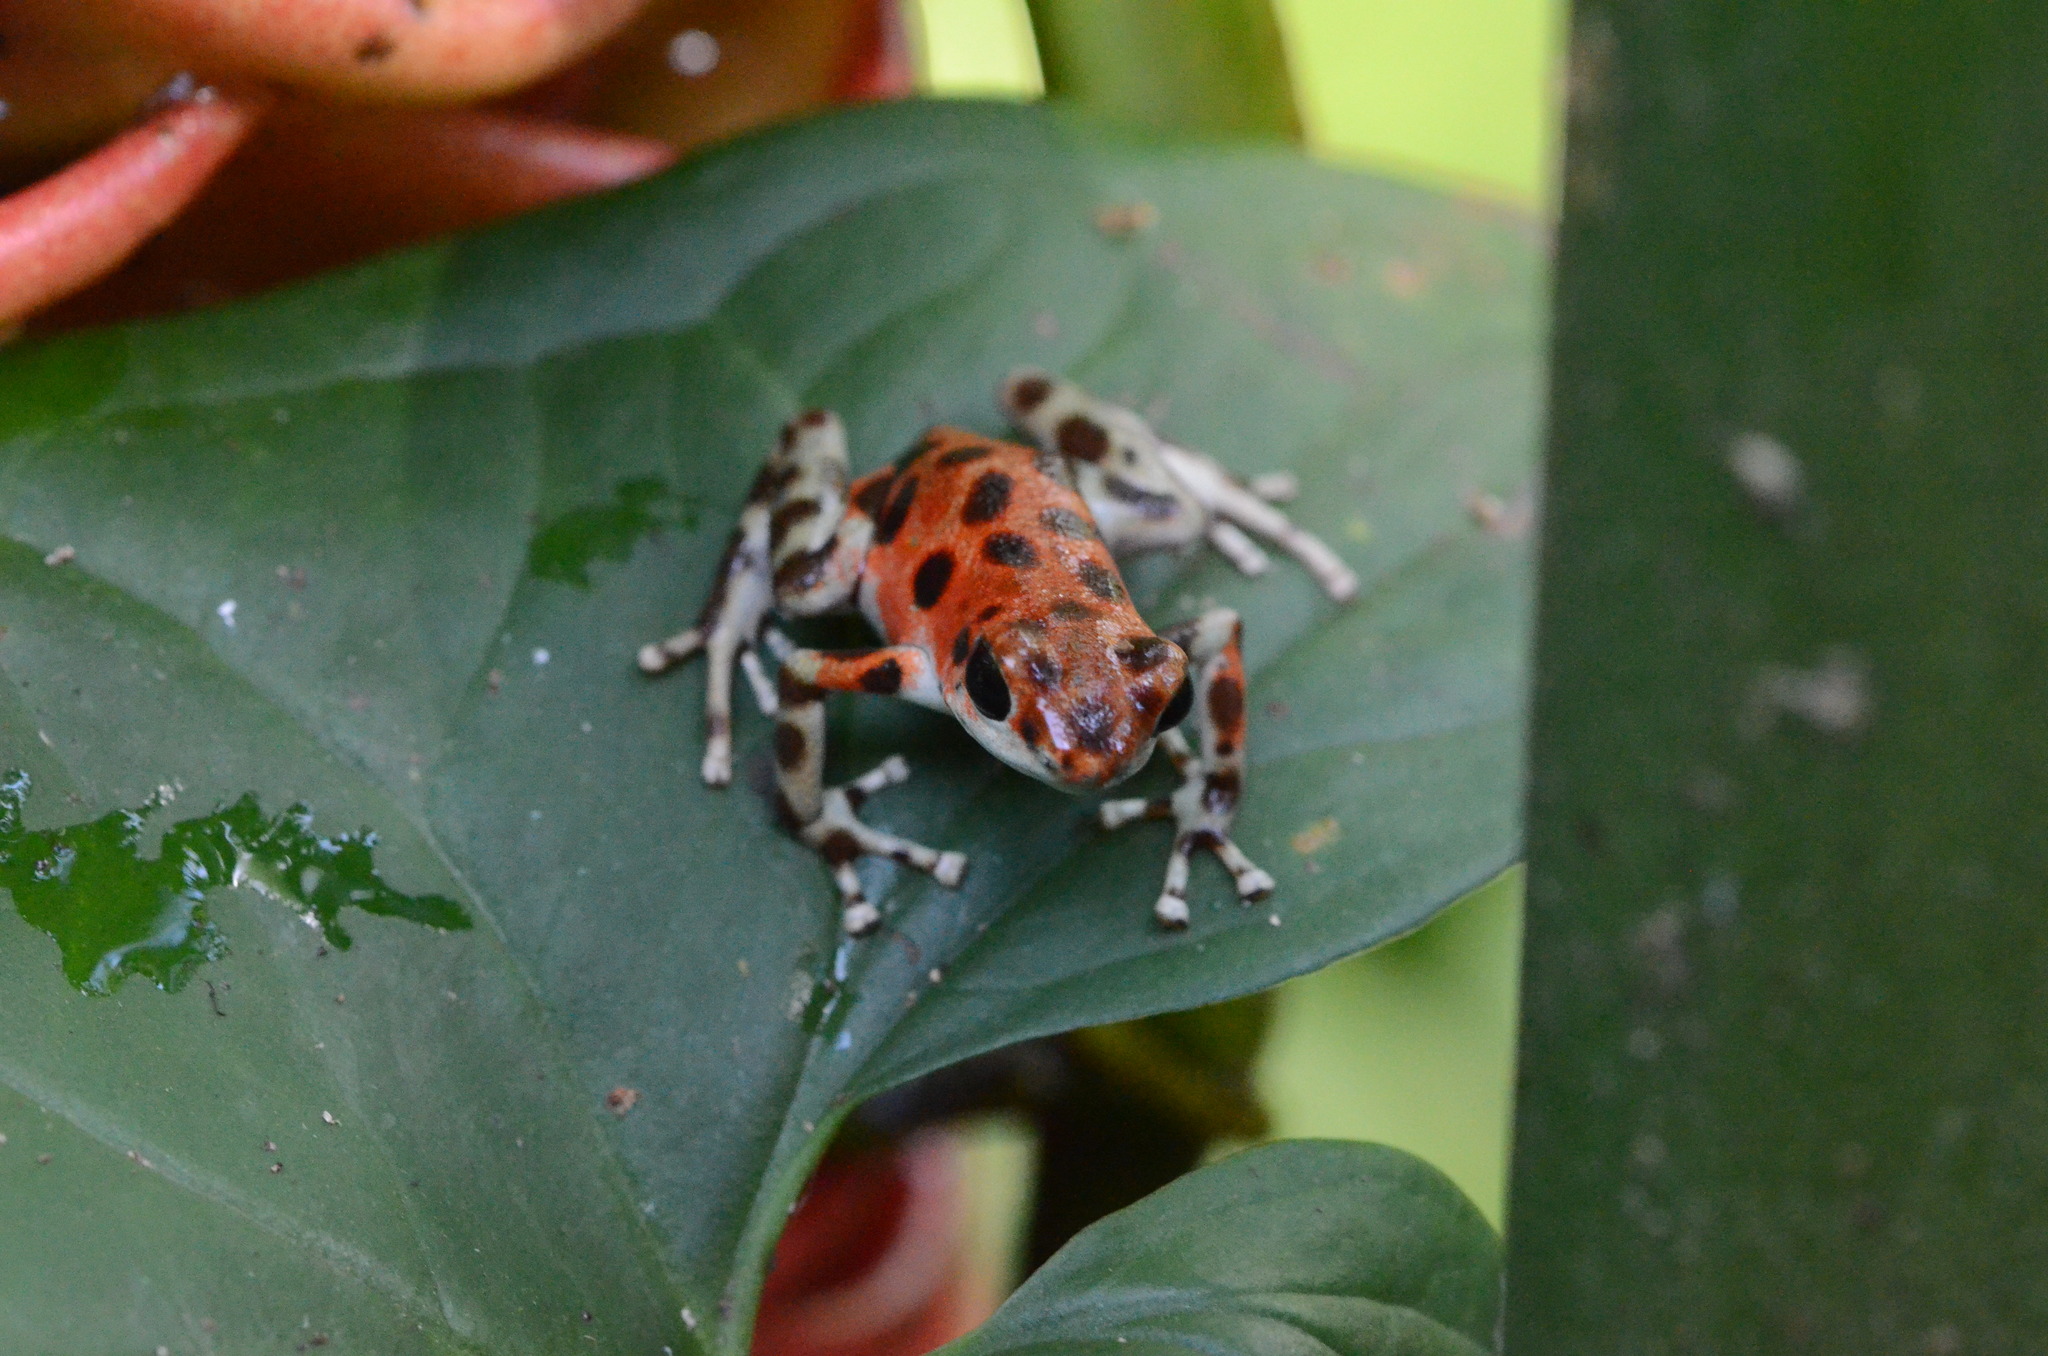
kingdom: Animalia
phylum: Chordata
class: Amphibia
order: Anura
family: Dendrobatidae
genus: Oophaga
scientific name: Oophaga pumilio
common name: Flaming poison frog
